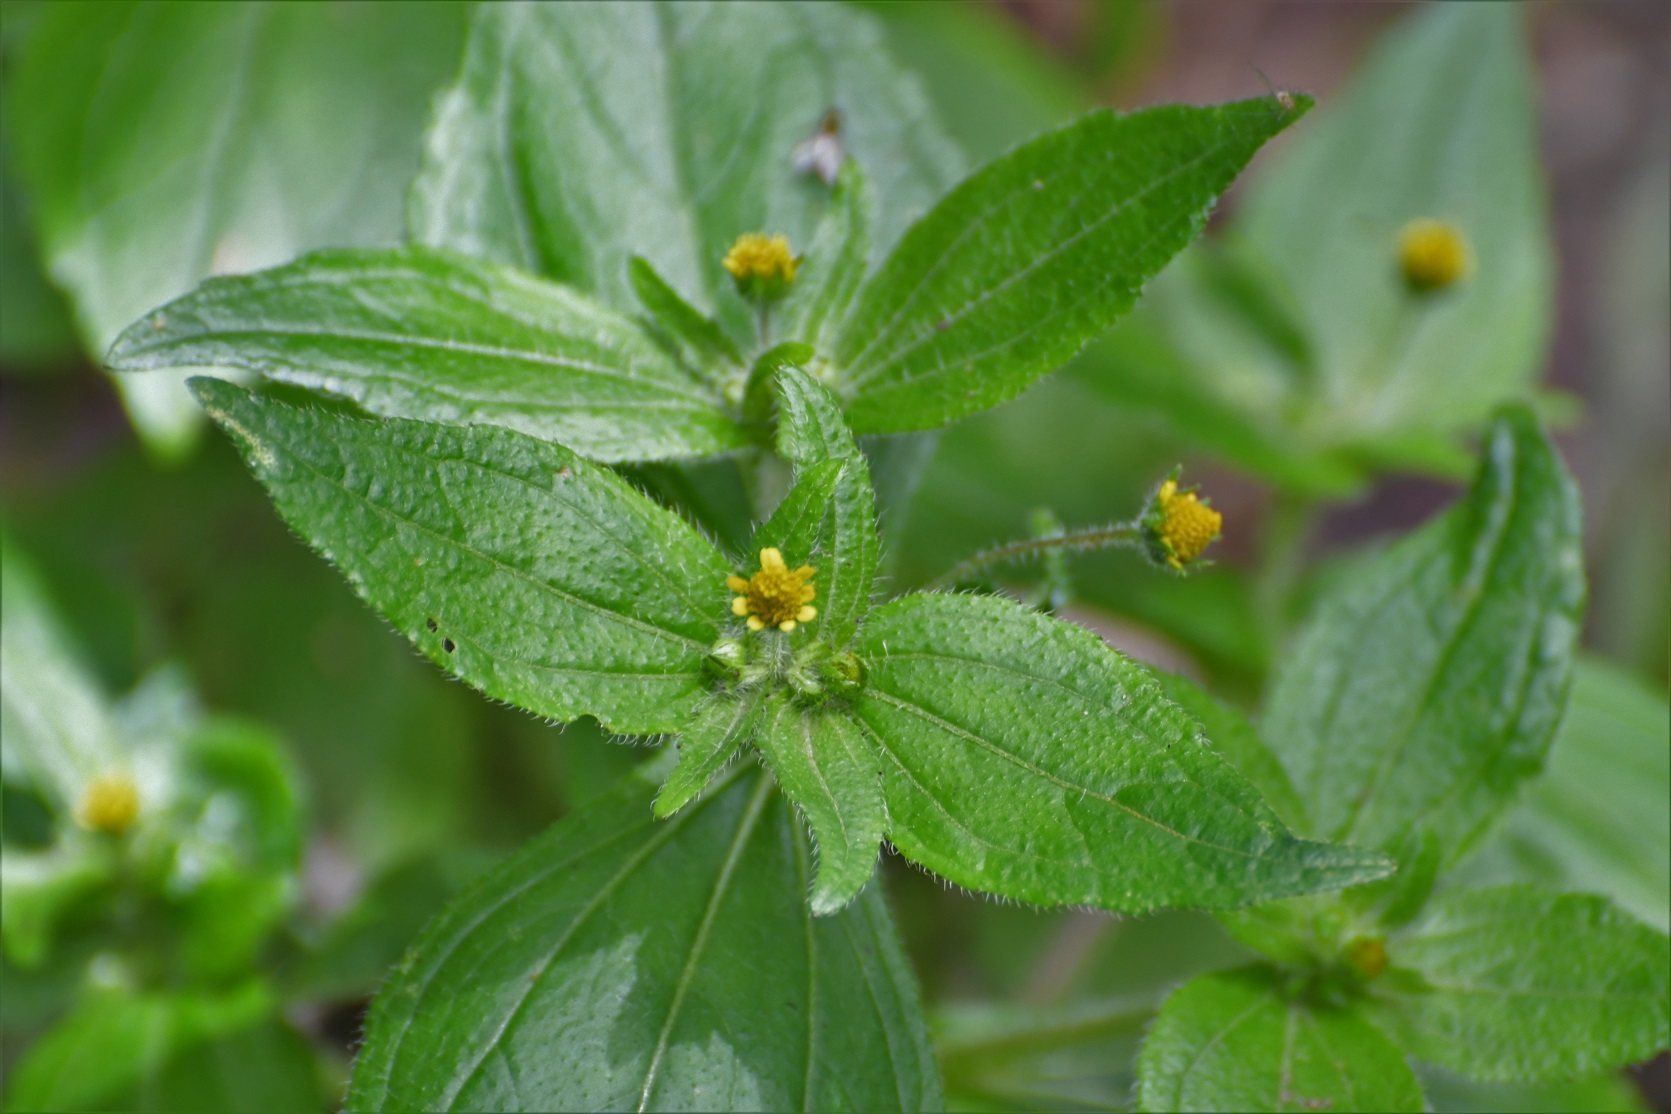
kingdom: Plantae
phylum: Tracheophyta
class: Magnoliopsida
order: Asterales
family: Asteraceae
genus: Jaegeria
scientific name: Jaegeria hirta
